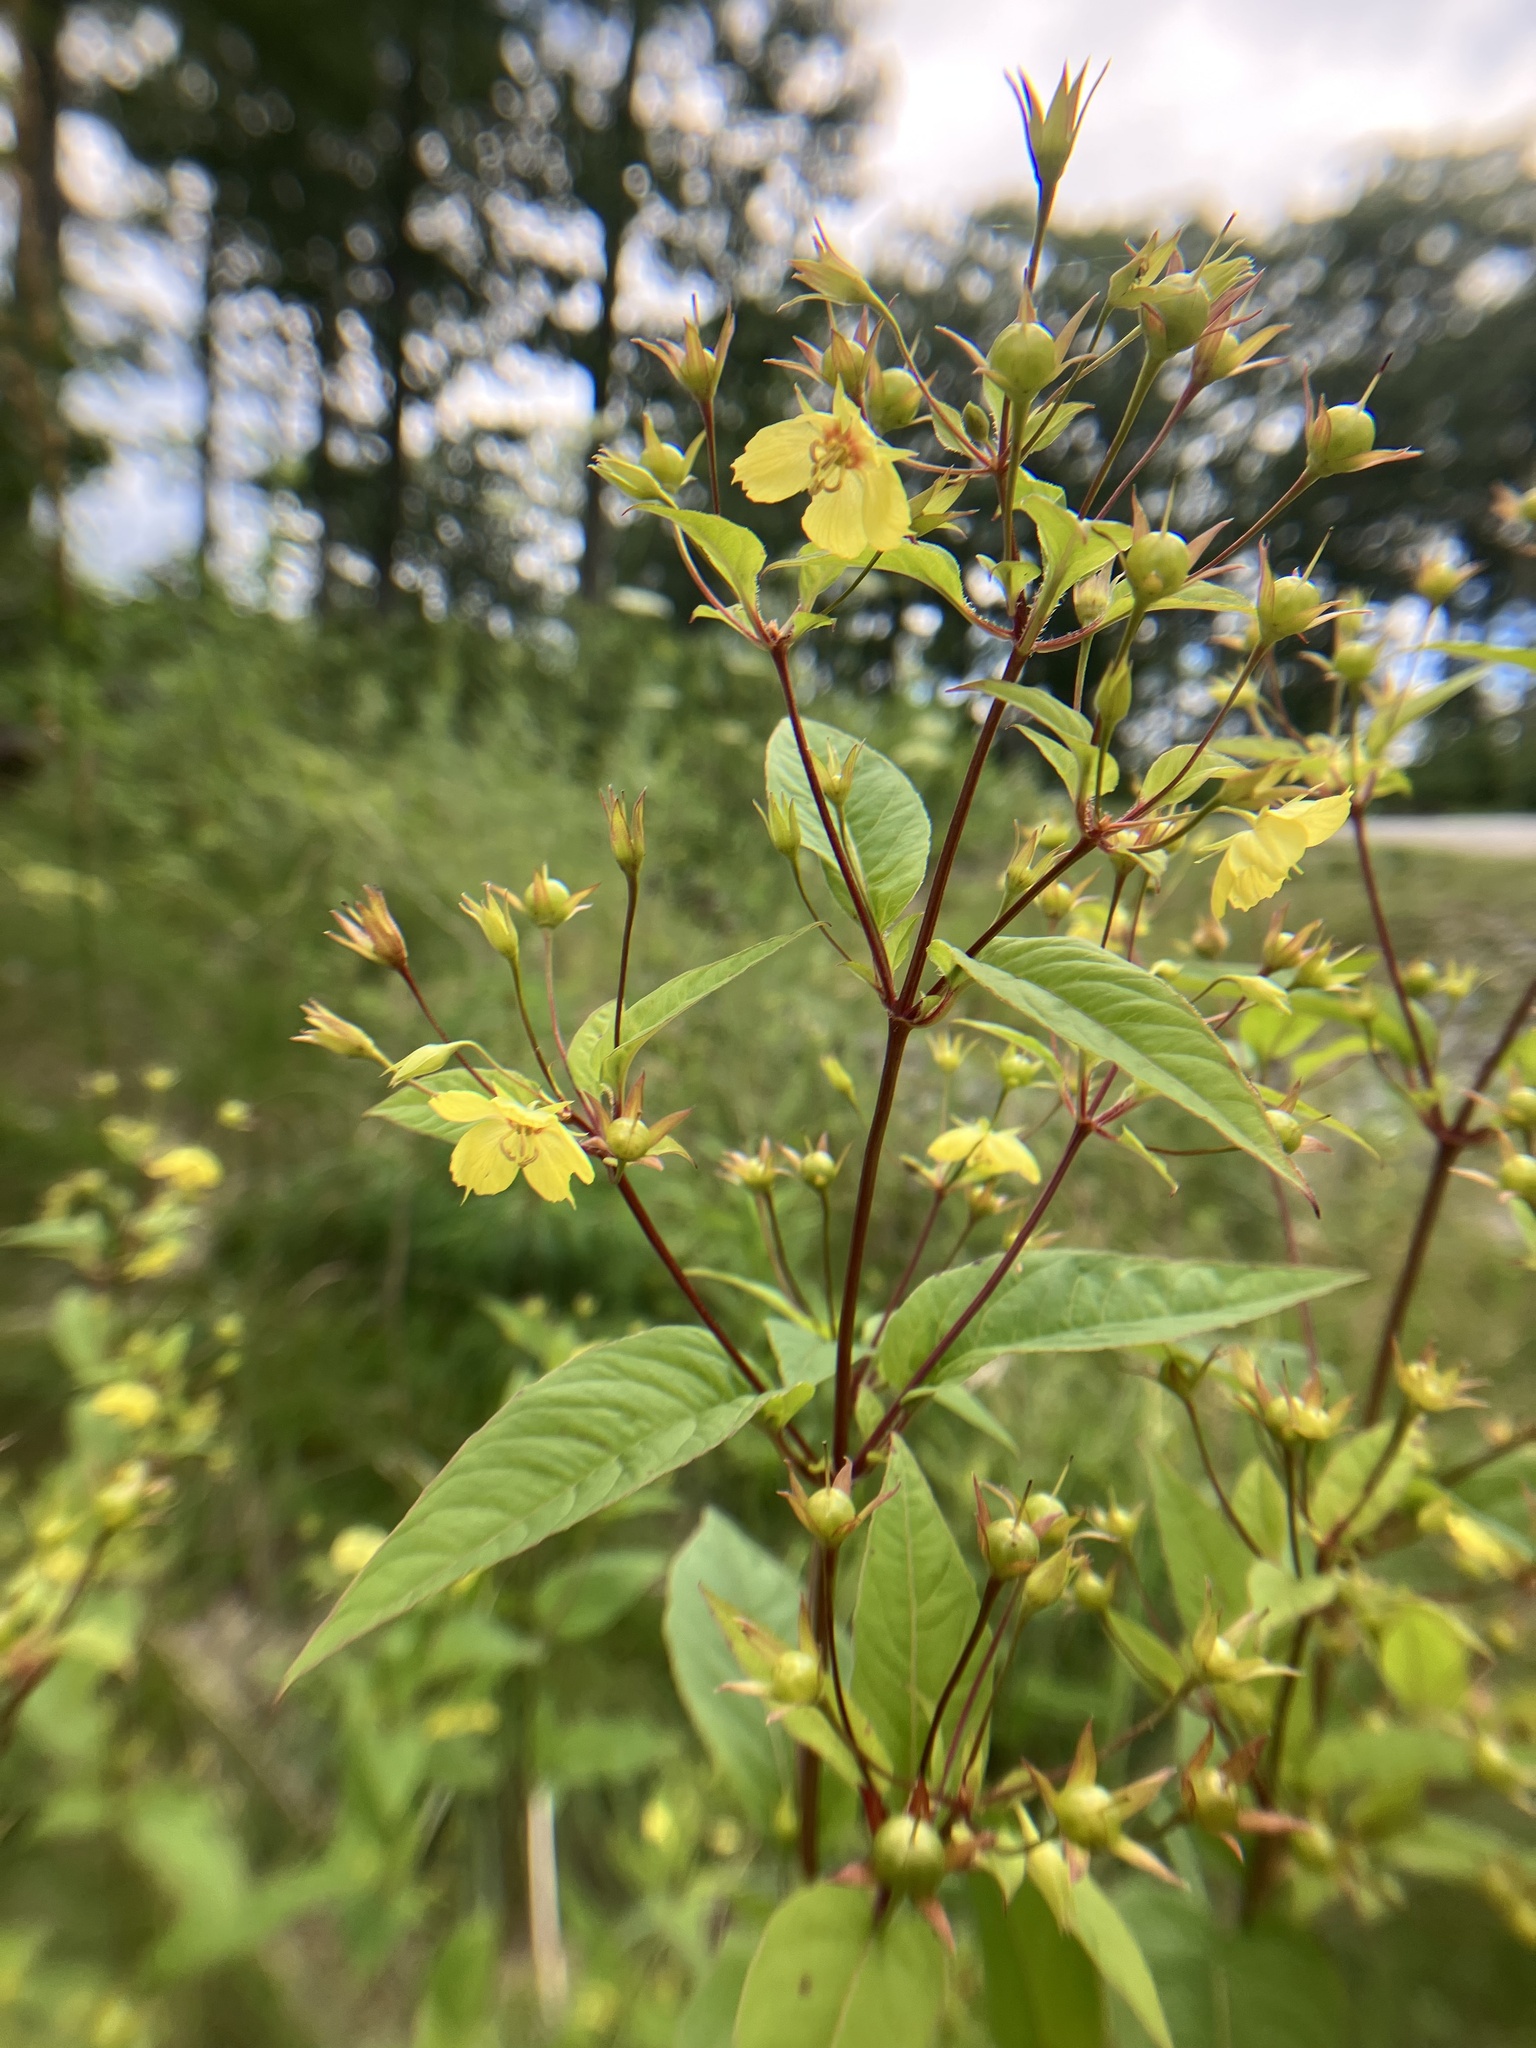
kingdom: Plantae
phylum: Tracheophyta
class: Magnoliopsida
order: Ericales
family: Primulaceae
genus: Lysimachia
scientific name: Lysimachia ciliata
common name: Fringed loosestrife
